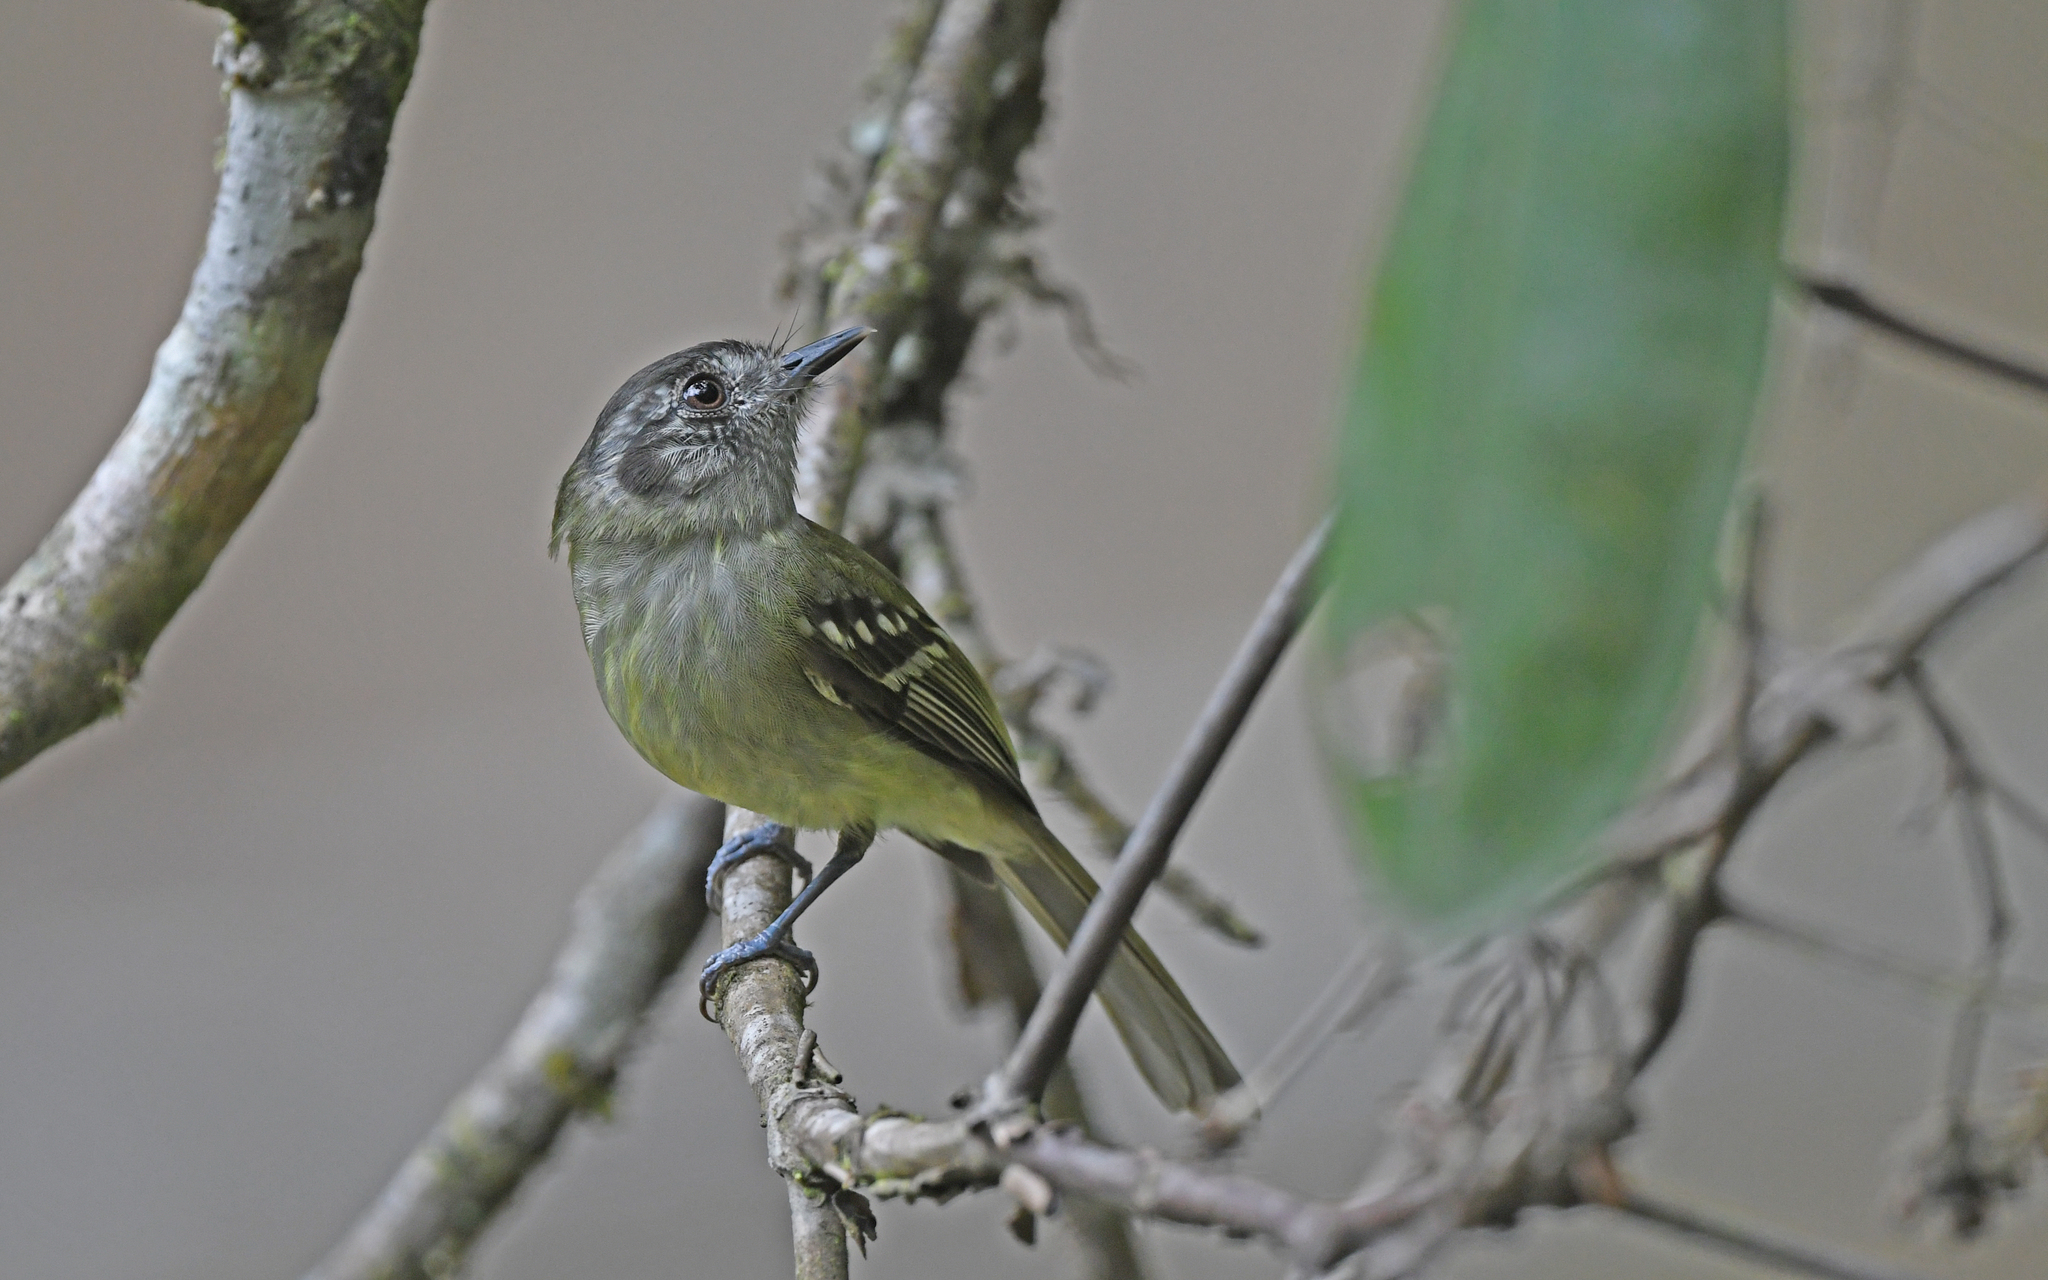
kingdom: Animalia
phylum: Chordata
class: Aves
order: Passeriformes
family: Tyrannidae
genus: Leptopogon
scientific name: Leptopogon superciliaris
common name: Slaty-capped flycatcher
